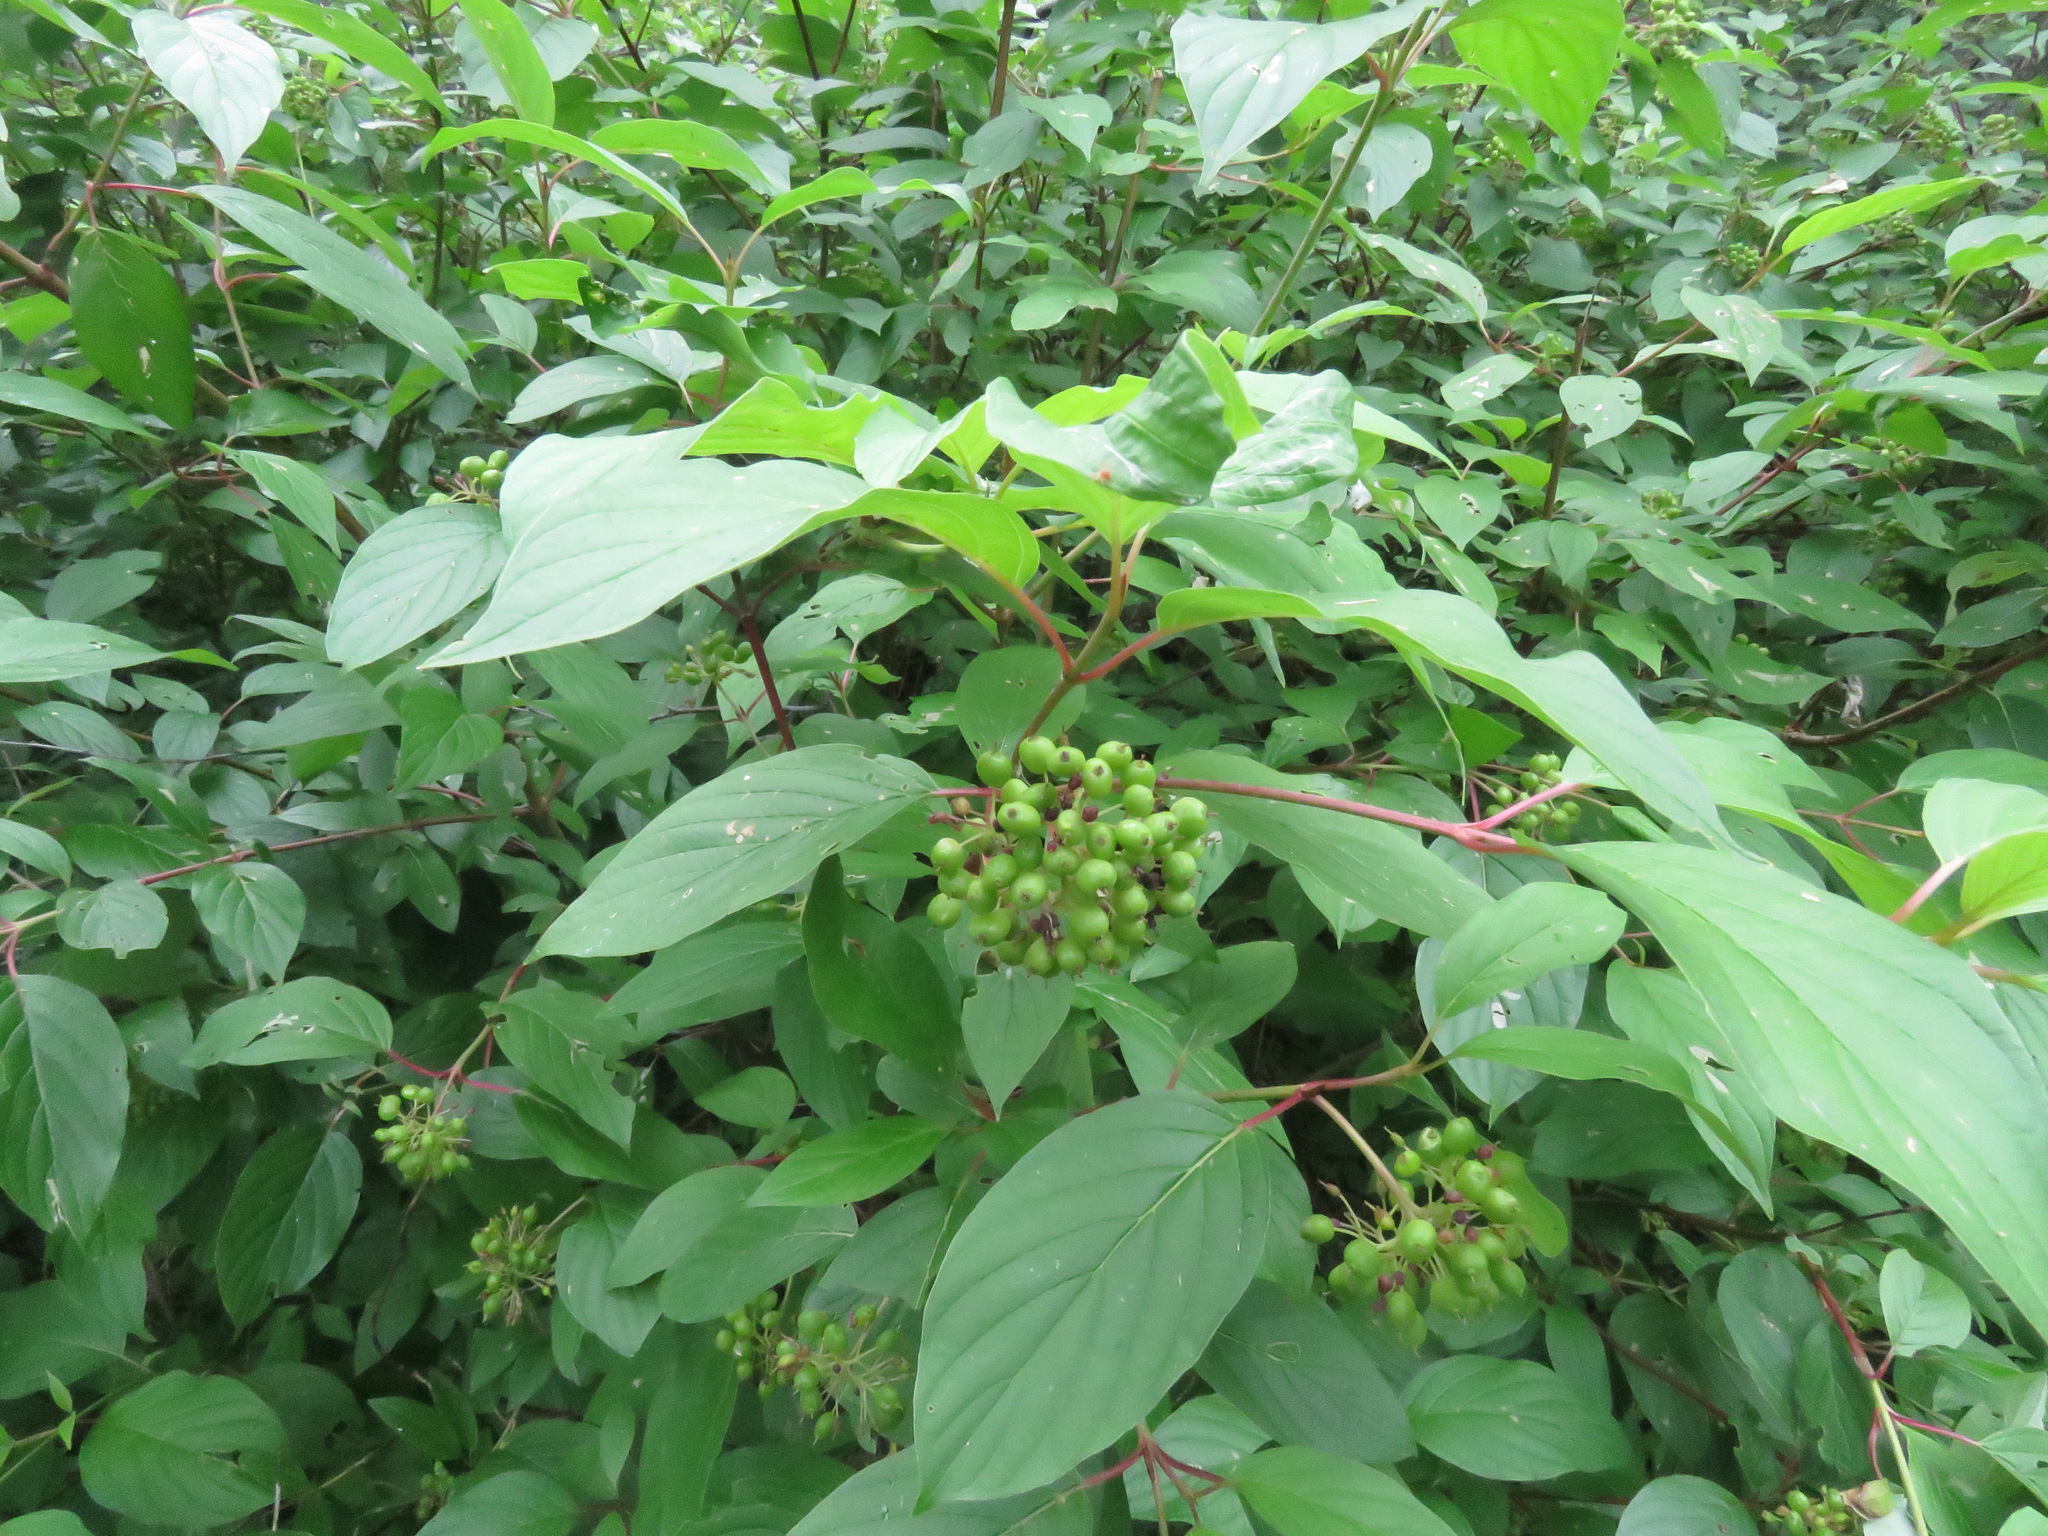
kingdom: Plantae
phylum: Tracheophyta
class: Magnoliopsida
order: Cornales
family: Cornaceae
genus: Cornus
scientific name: Cornus sericea
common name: Red-osier dogwood
